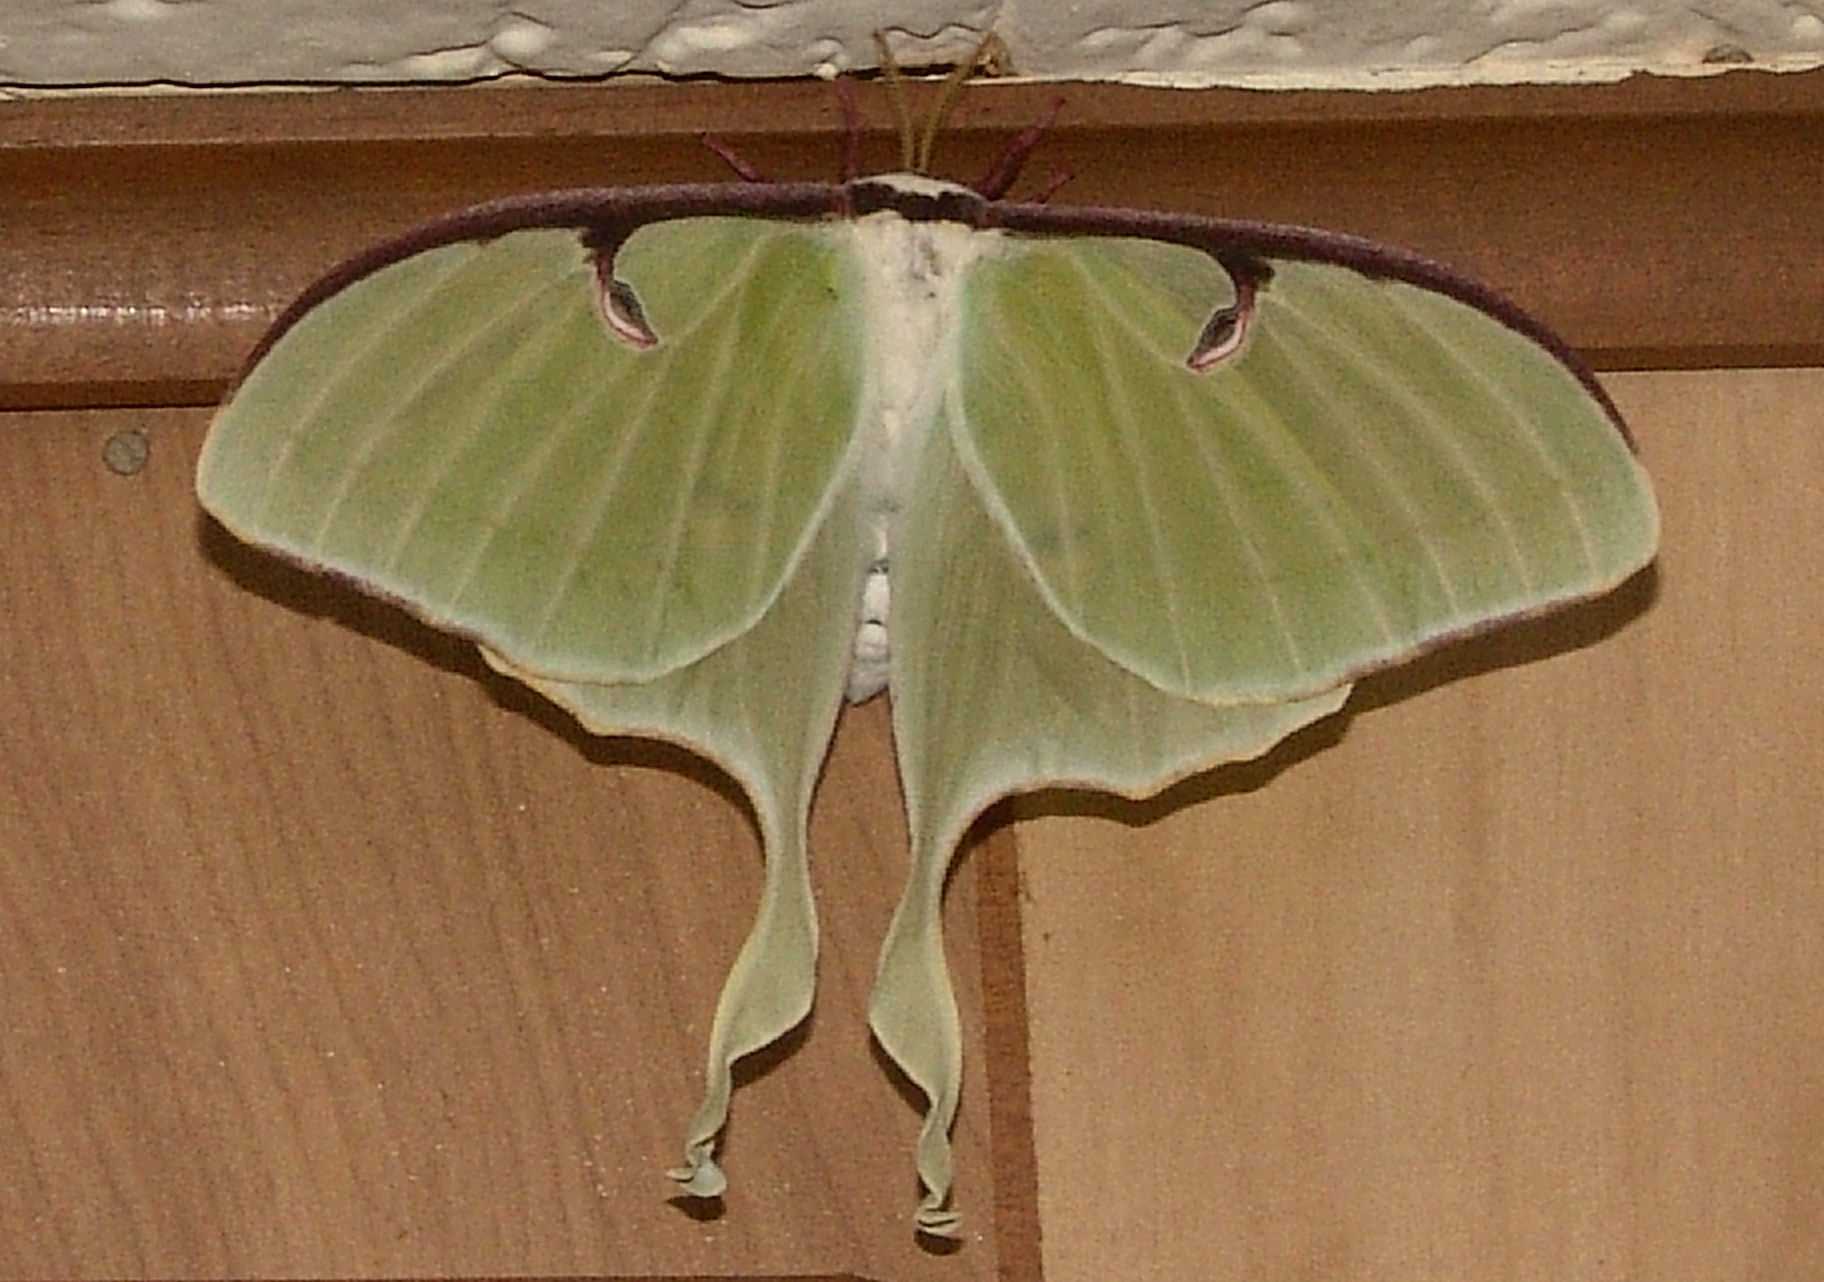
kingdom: Animalia
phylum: Arthropoda
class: Insecta
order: Lepidoptera
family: Saturniidae
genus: Actias
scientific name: Actias luna
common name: Luna moth
